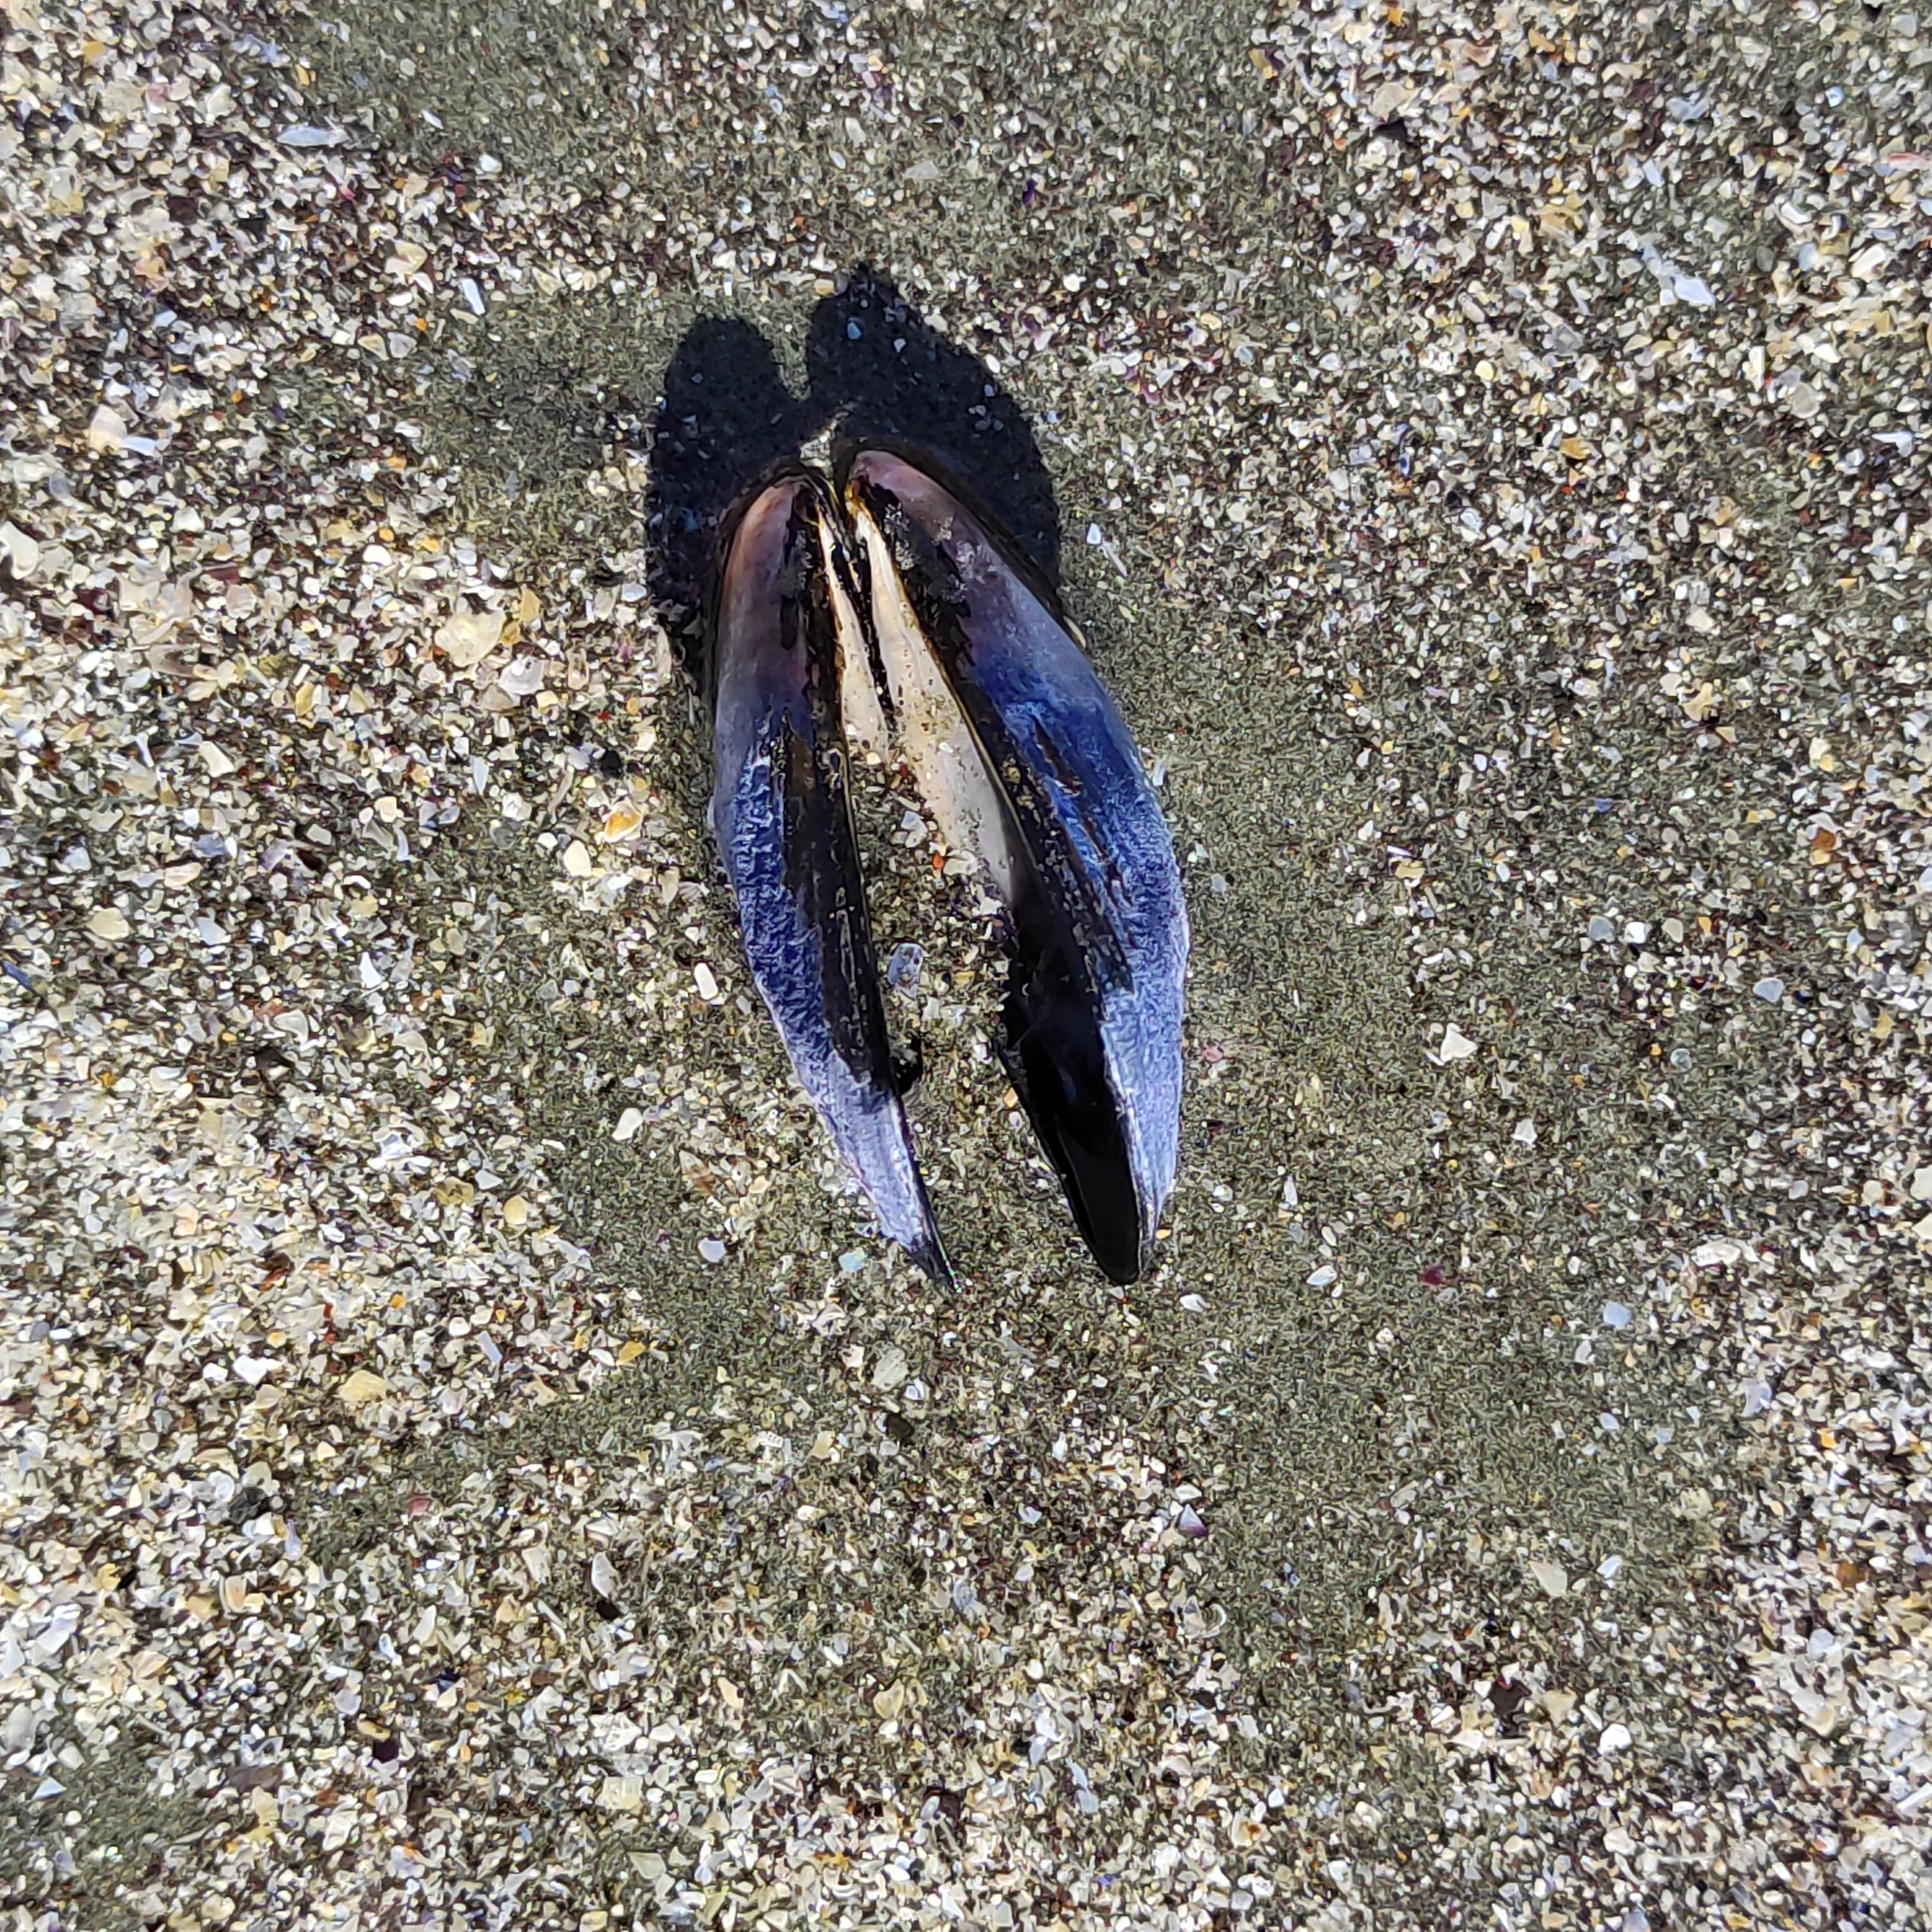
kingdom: Animalia
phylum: Mollusca
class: Bivalvia
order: Mytilida
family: Mytilidae
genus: Mytilus
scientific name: Mytilus planulatus
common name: Australian mussel
